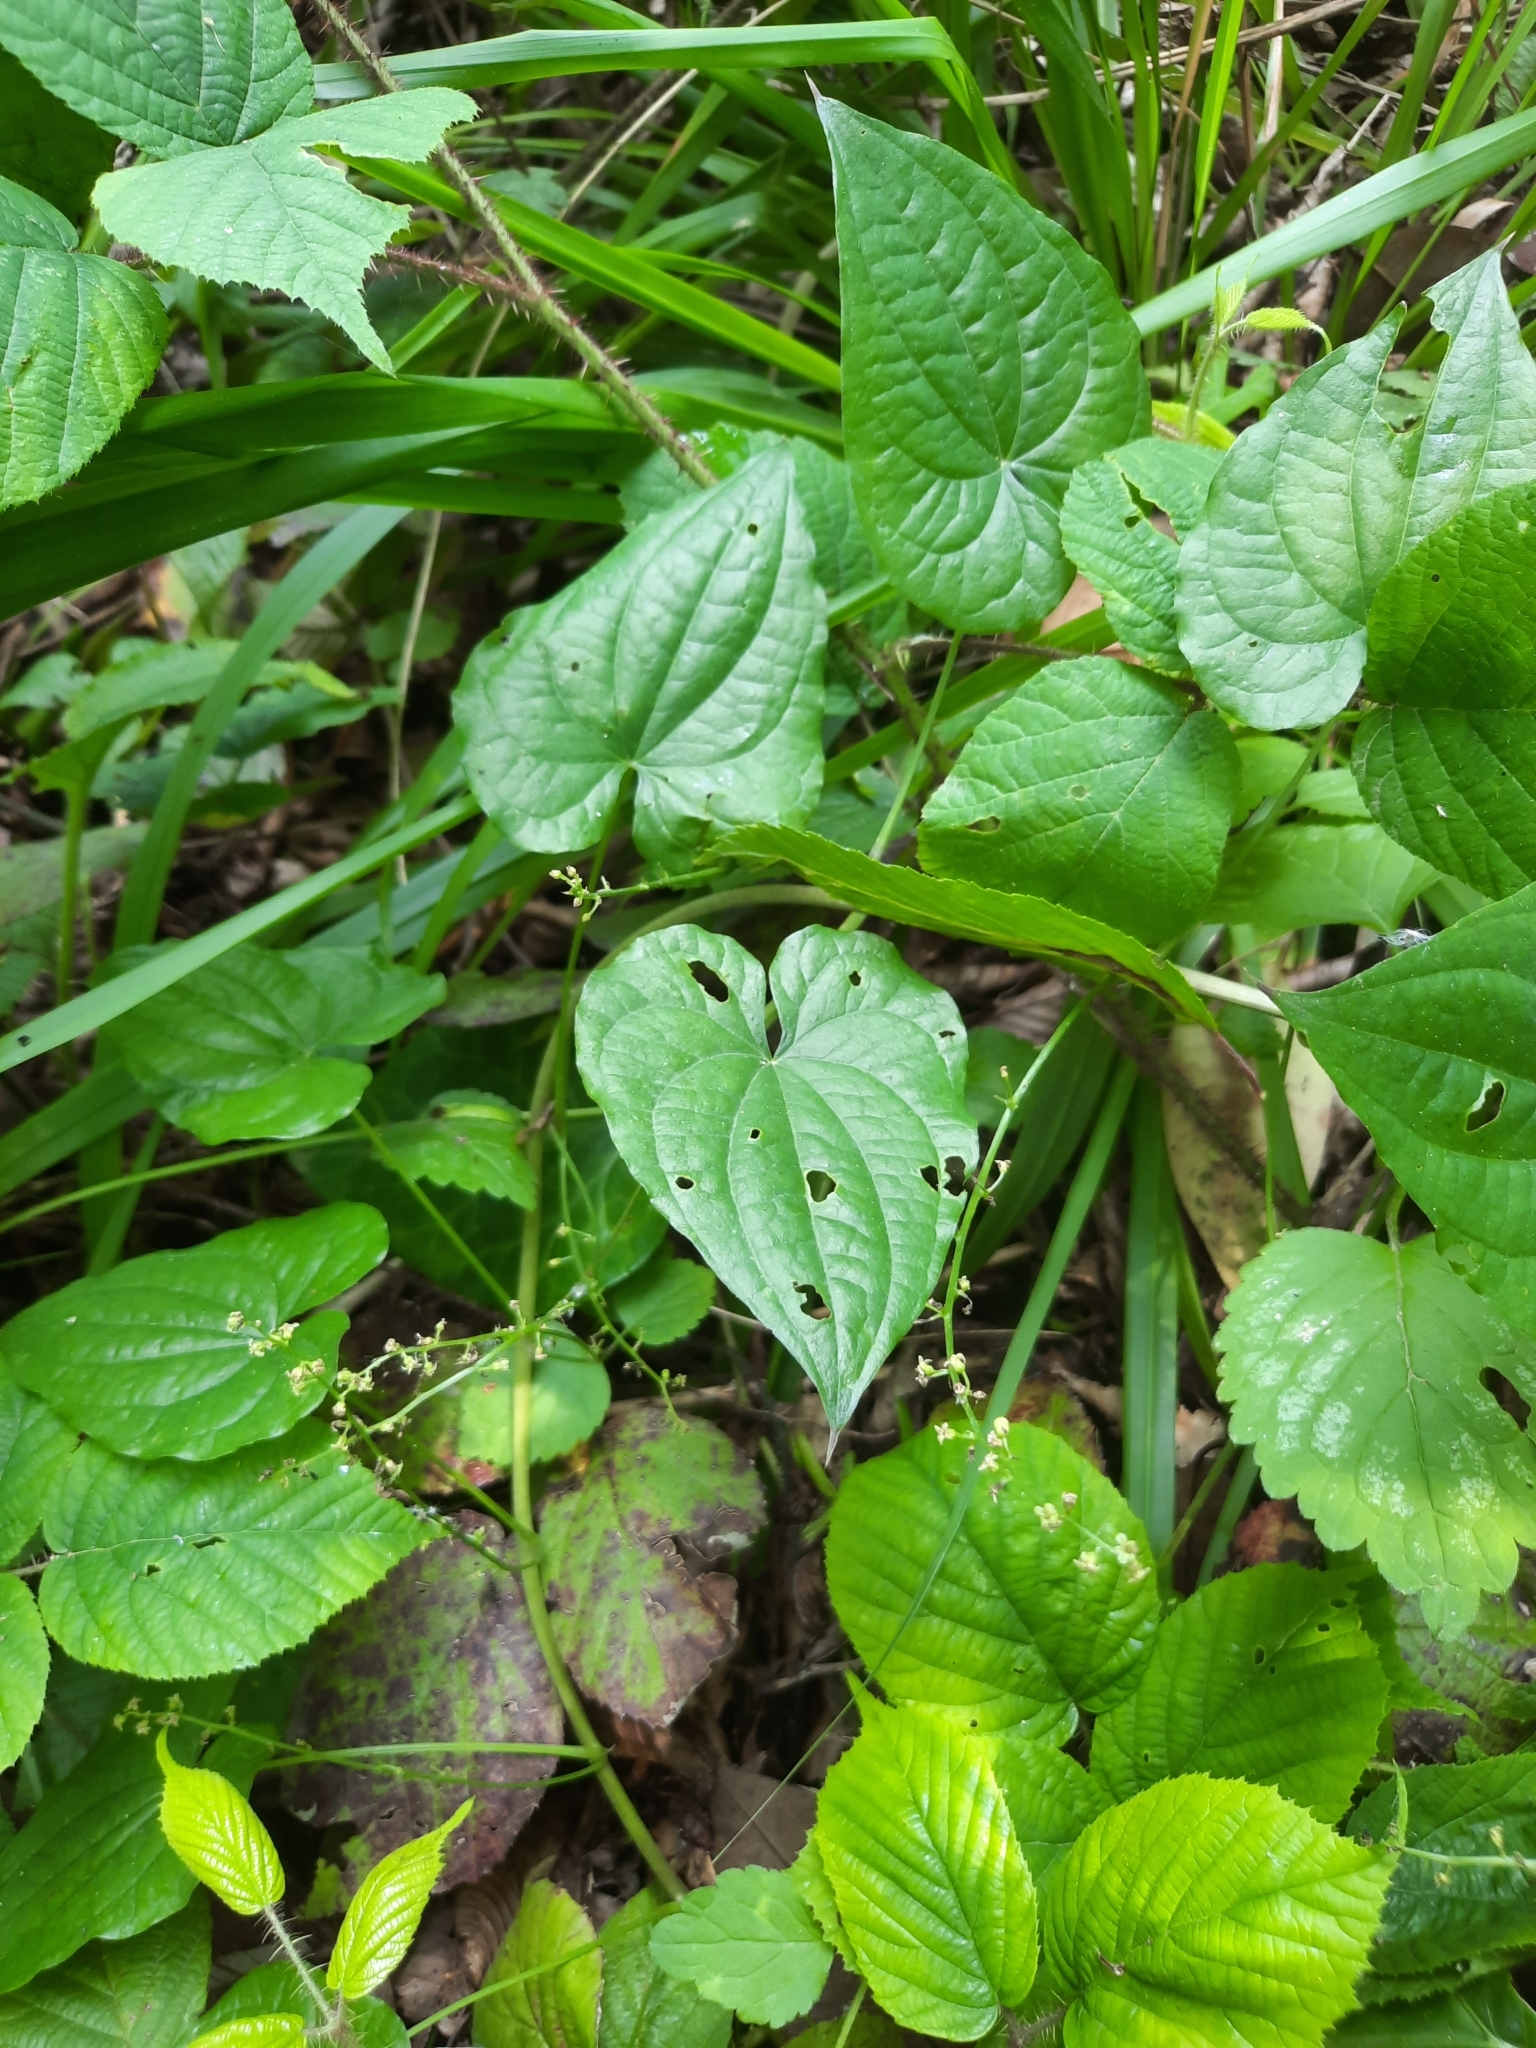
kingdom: Plantae
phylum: Tracheophyta
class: Liliopsida
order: Dioscoreales
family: Dioscoreaceae
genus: Dioscorea
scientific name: Dioscorea communis
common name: Black-bindweed
